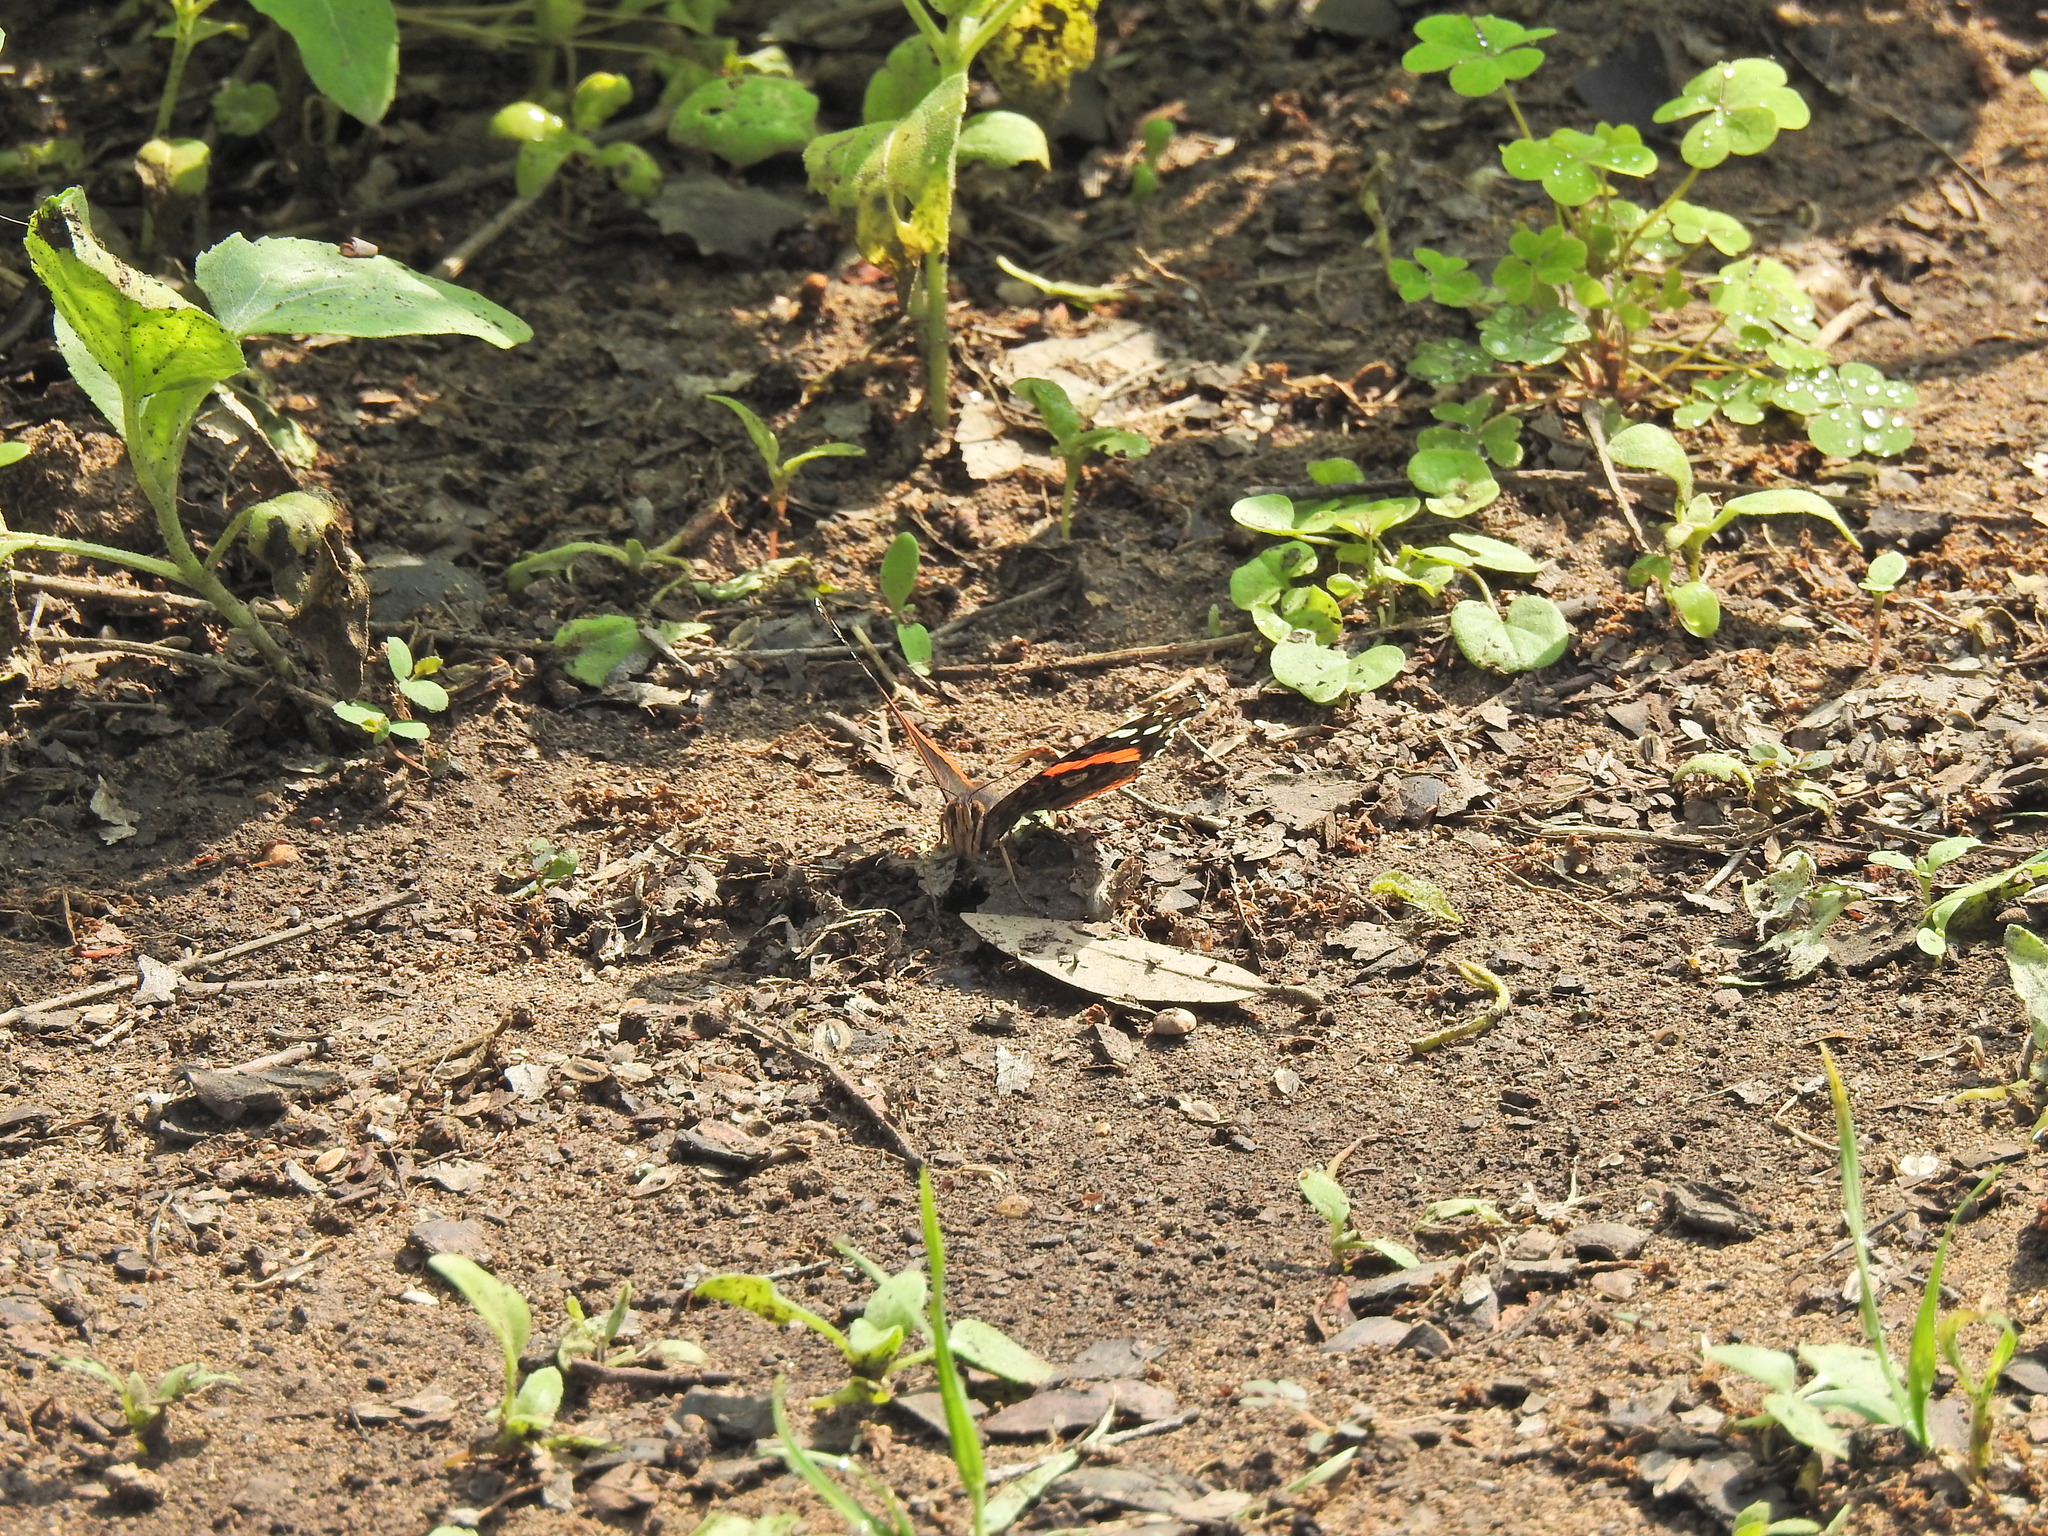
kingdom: Animalia
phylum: Arthropoda
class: Insecta
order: Lepidoptera
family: Nymphalidae
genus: Vanessa
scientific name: Vanessa atalanta
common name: Red admiral
